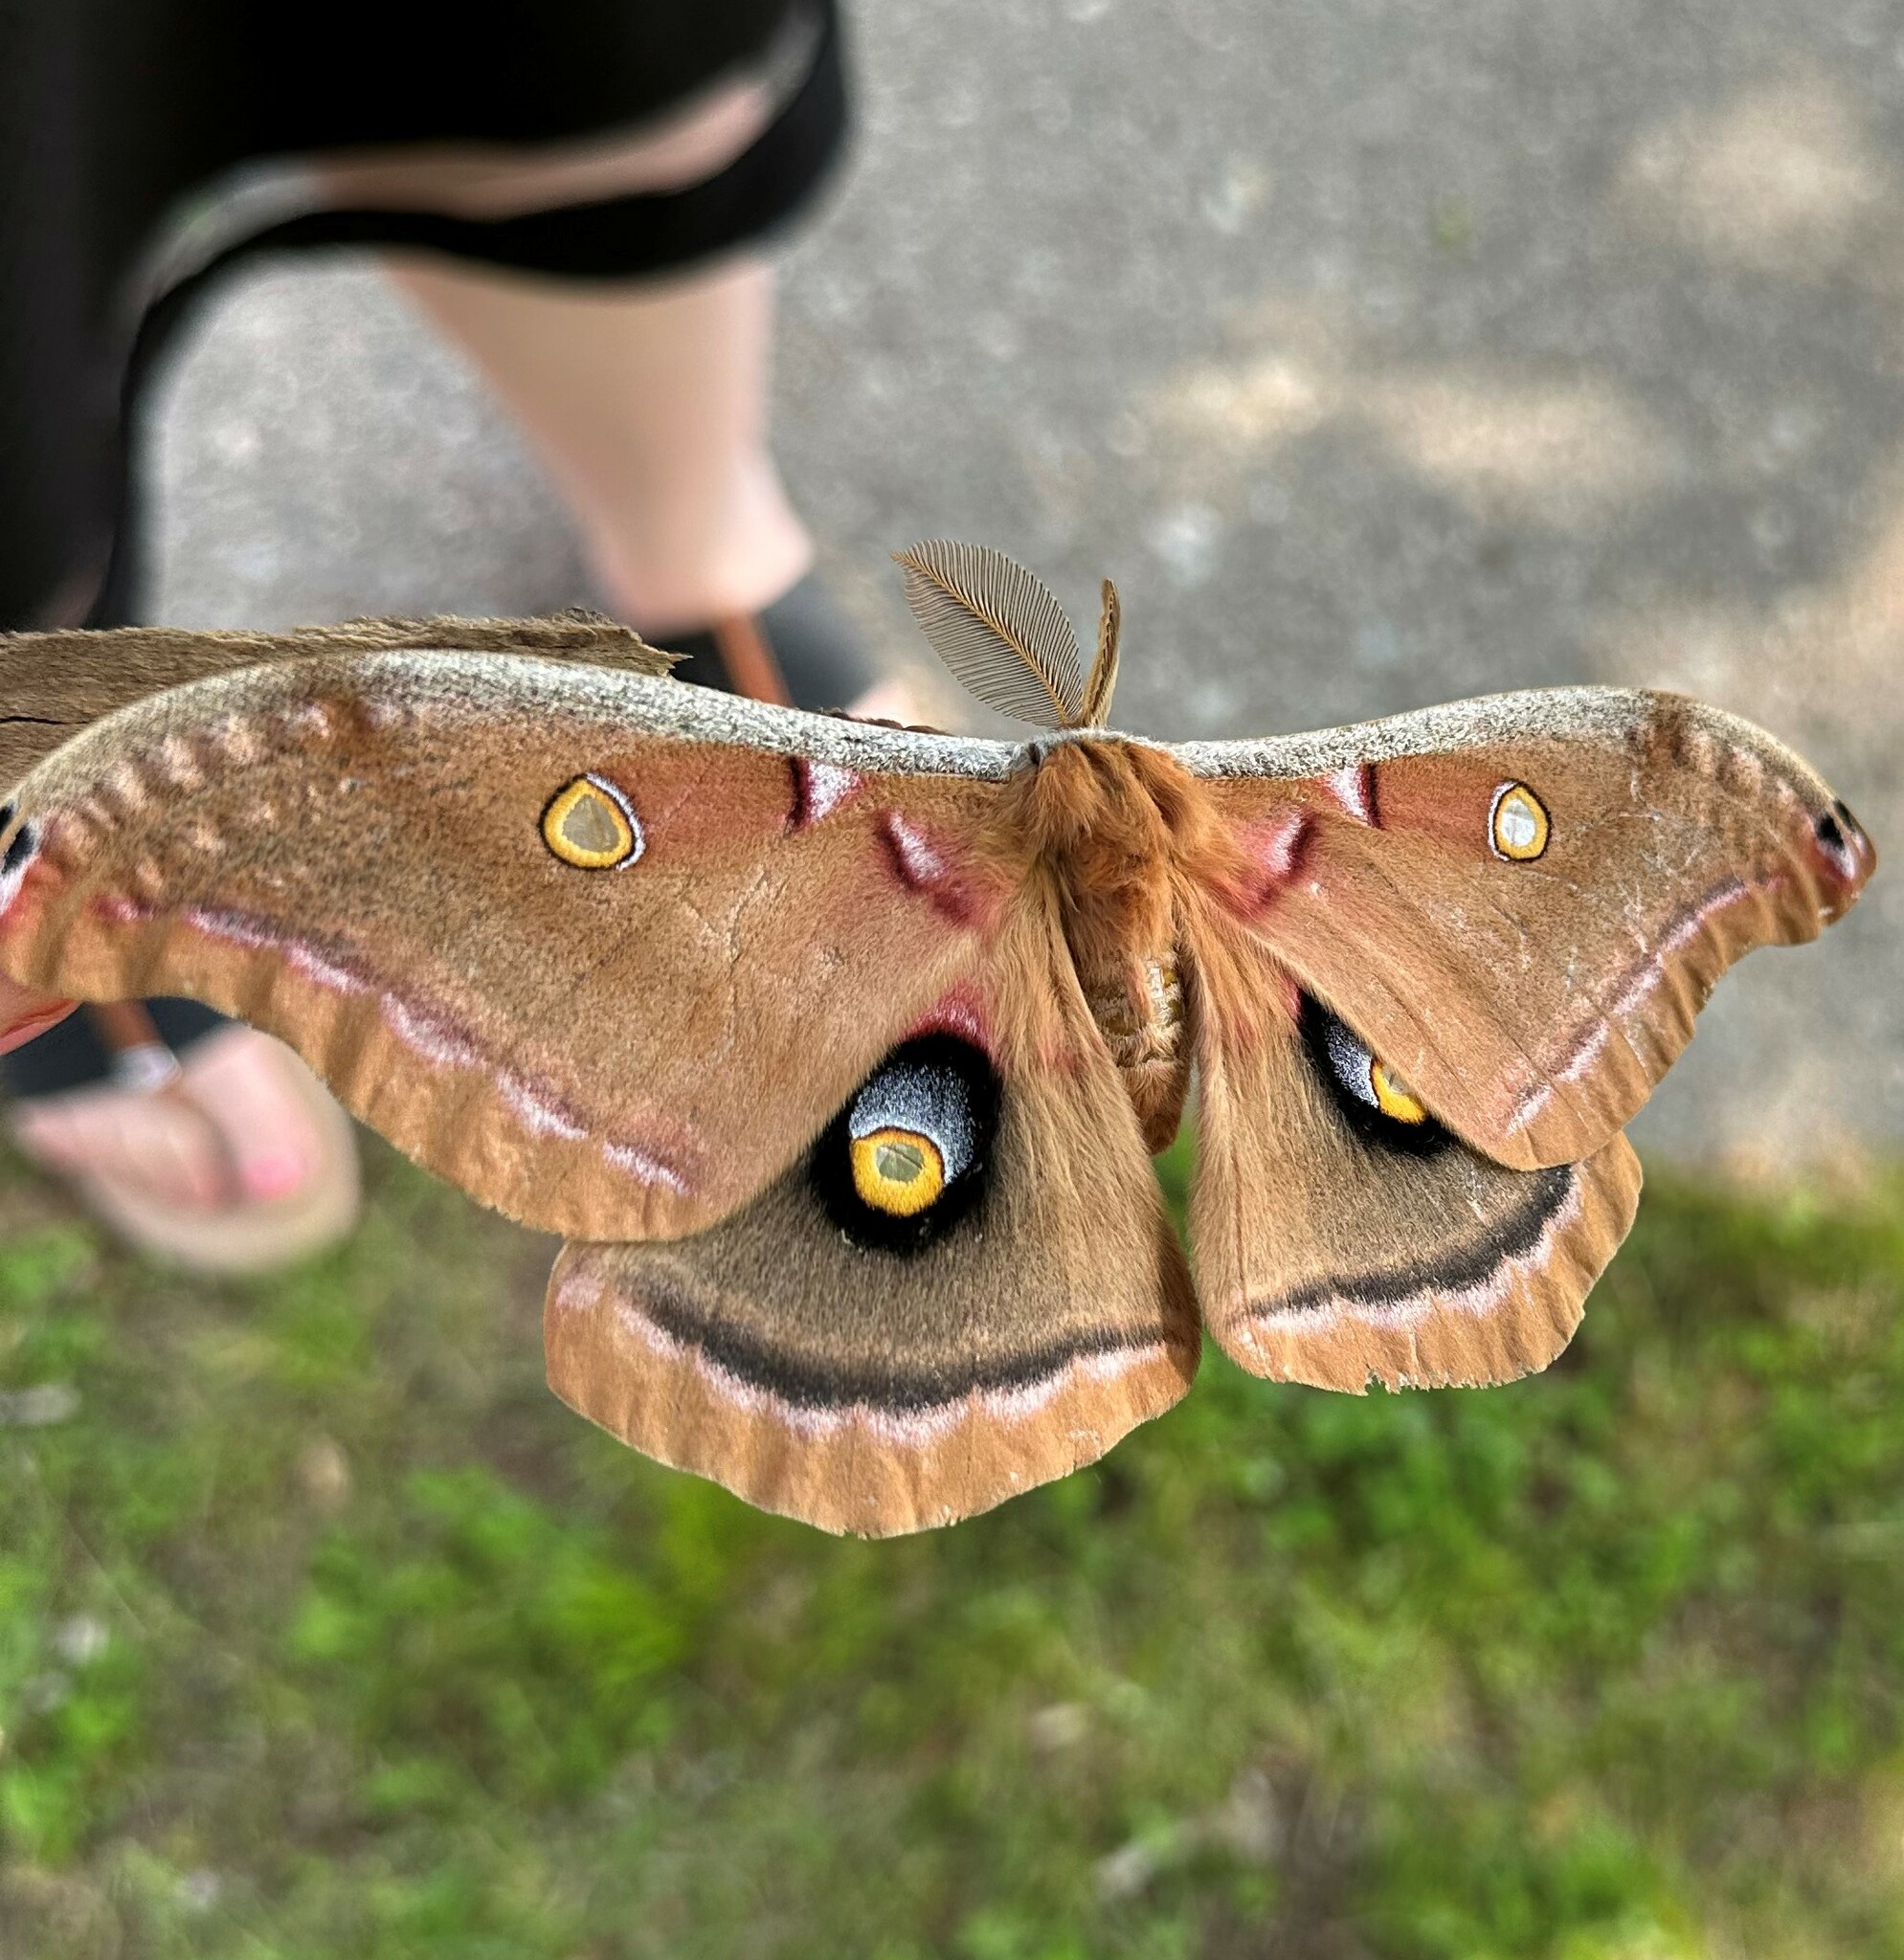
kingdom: Animalia
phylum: Arthropoda
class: Insecta
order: Lepidoptera
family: Saturniidae
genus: Antheraea
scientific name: Antheraea polyphemus
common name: Polyphemus moth
